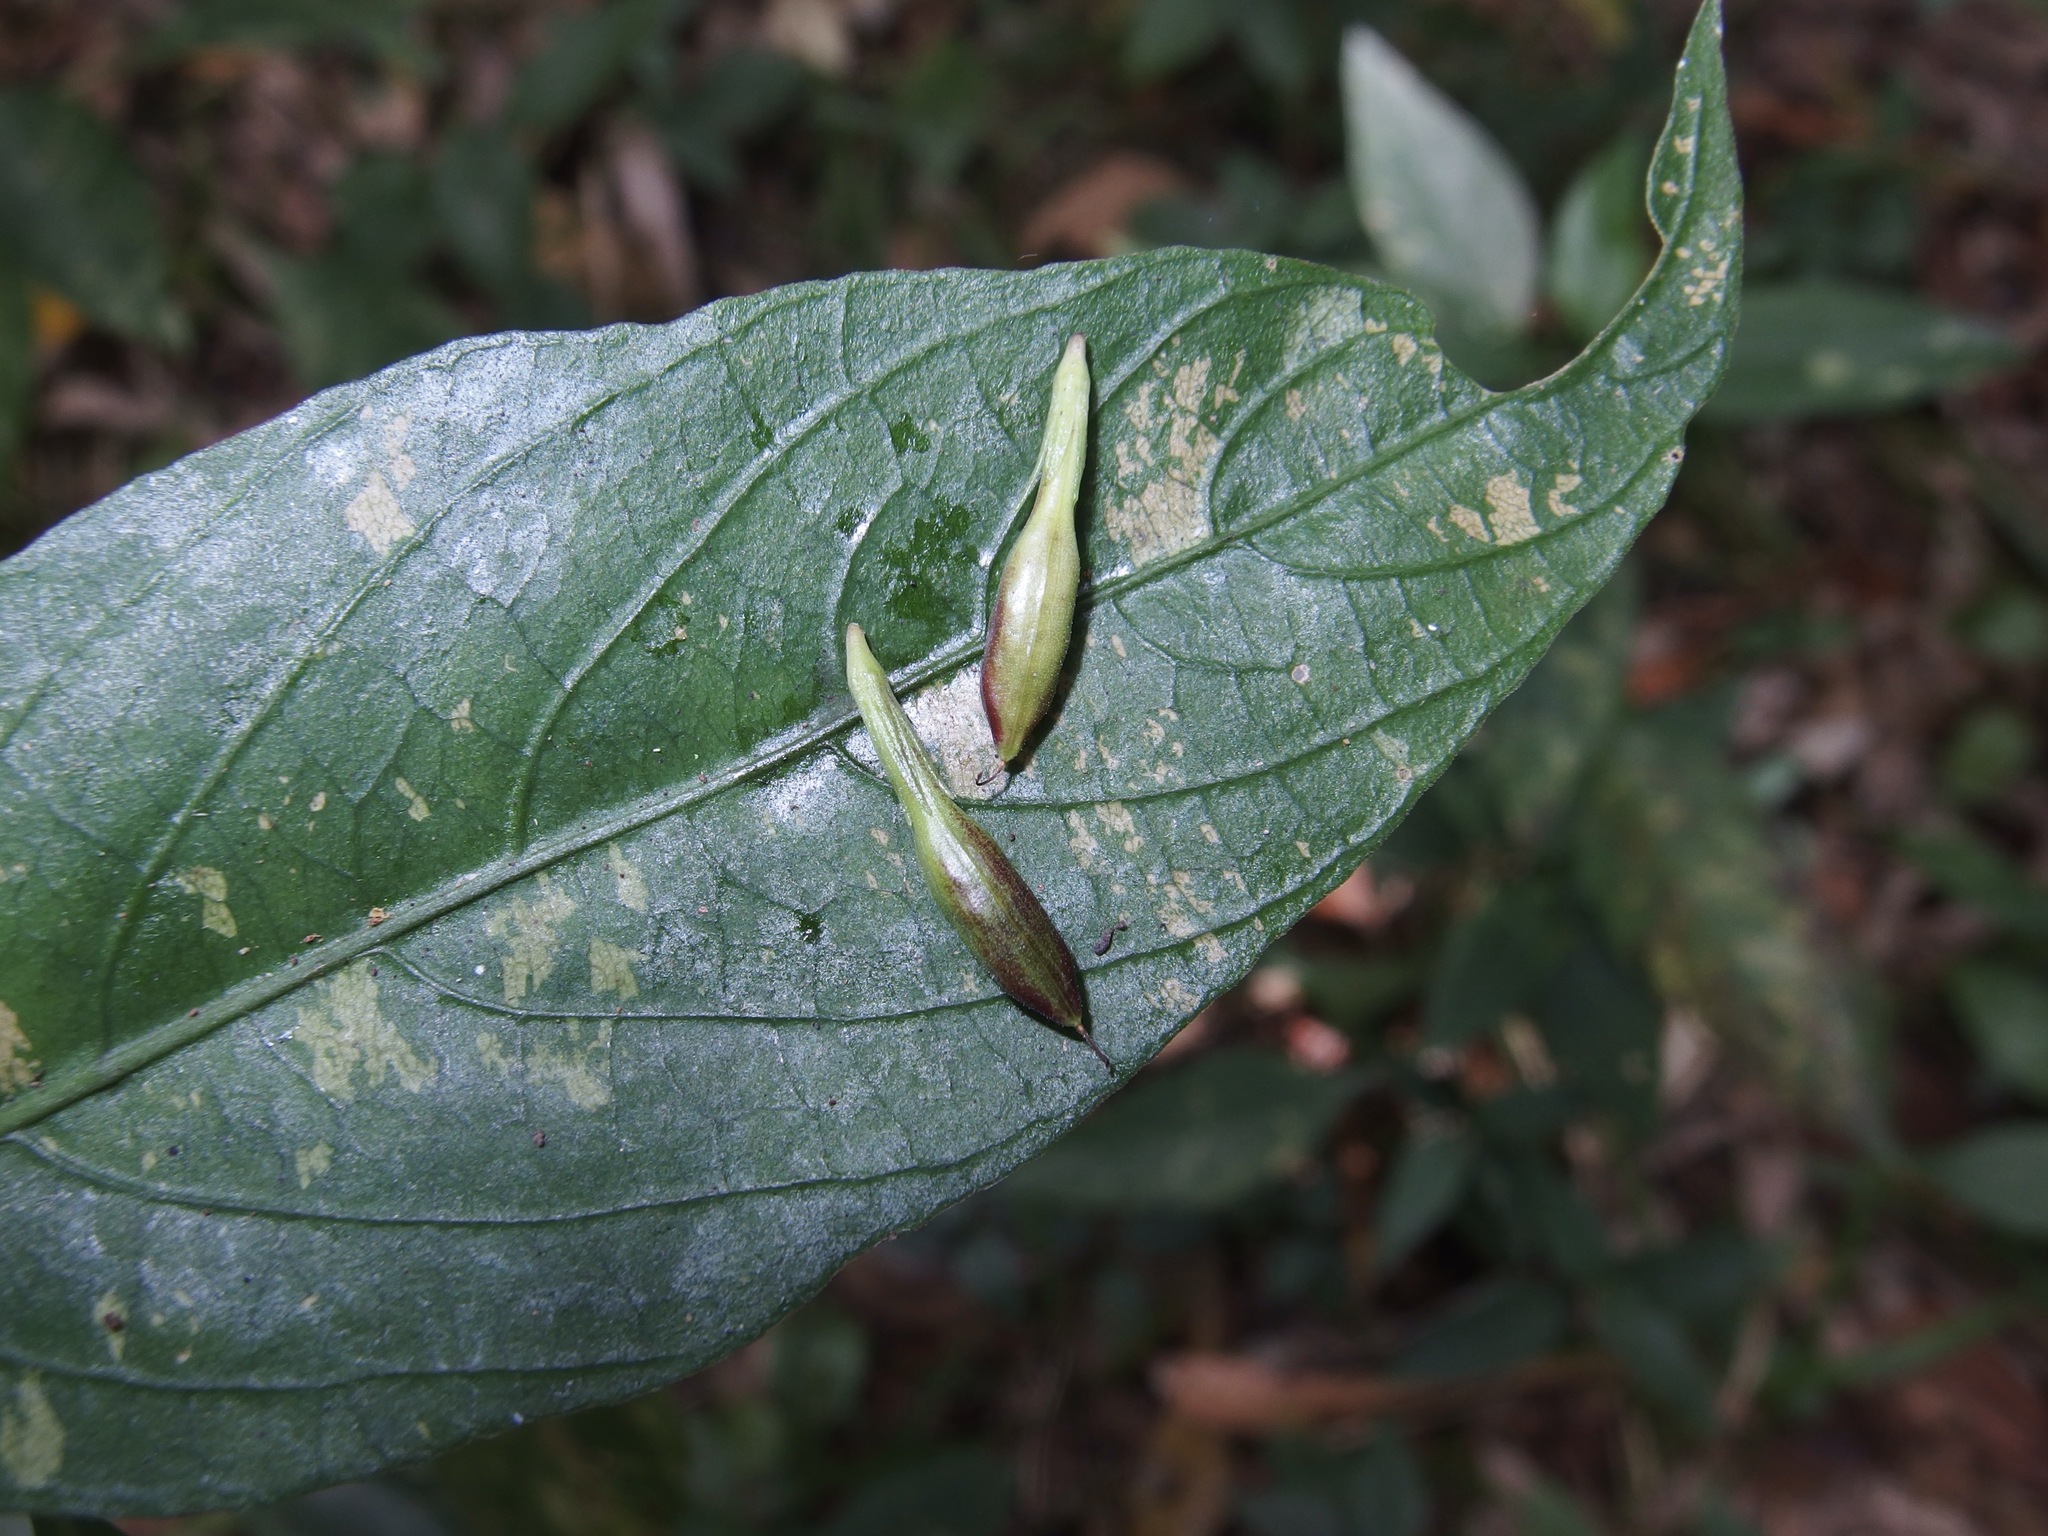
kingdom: Plantae
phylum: Tracheophyta
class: Magnoliopsida
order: Lamiales
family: Acanthaceae
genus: Ruellia
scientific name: Ruellia brevifolia
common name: Tropical wild petunia
